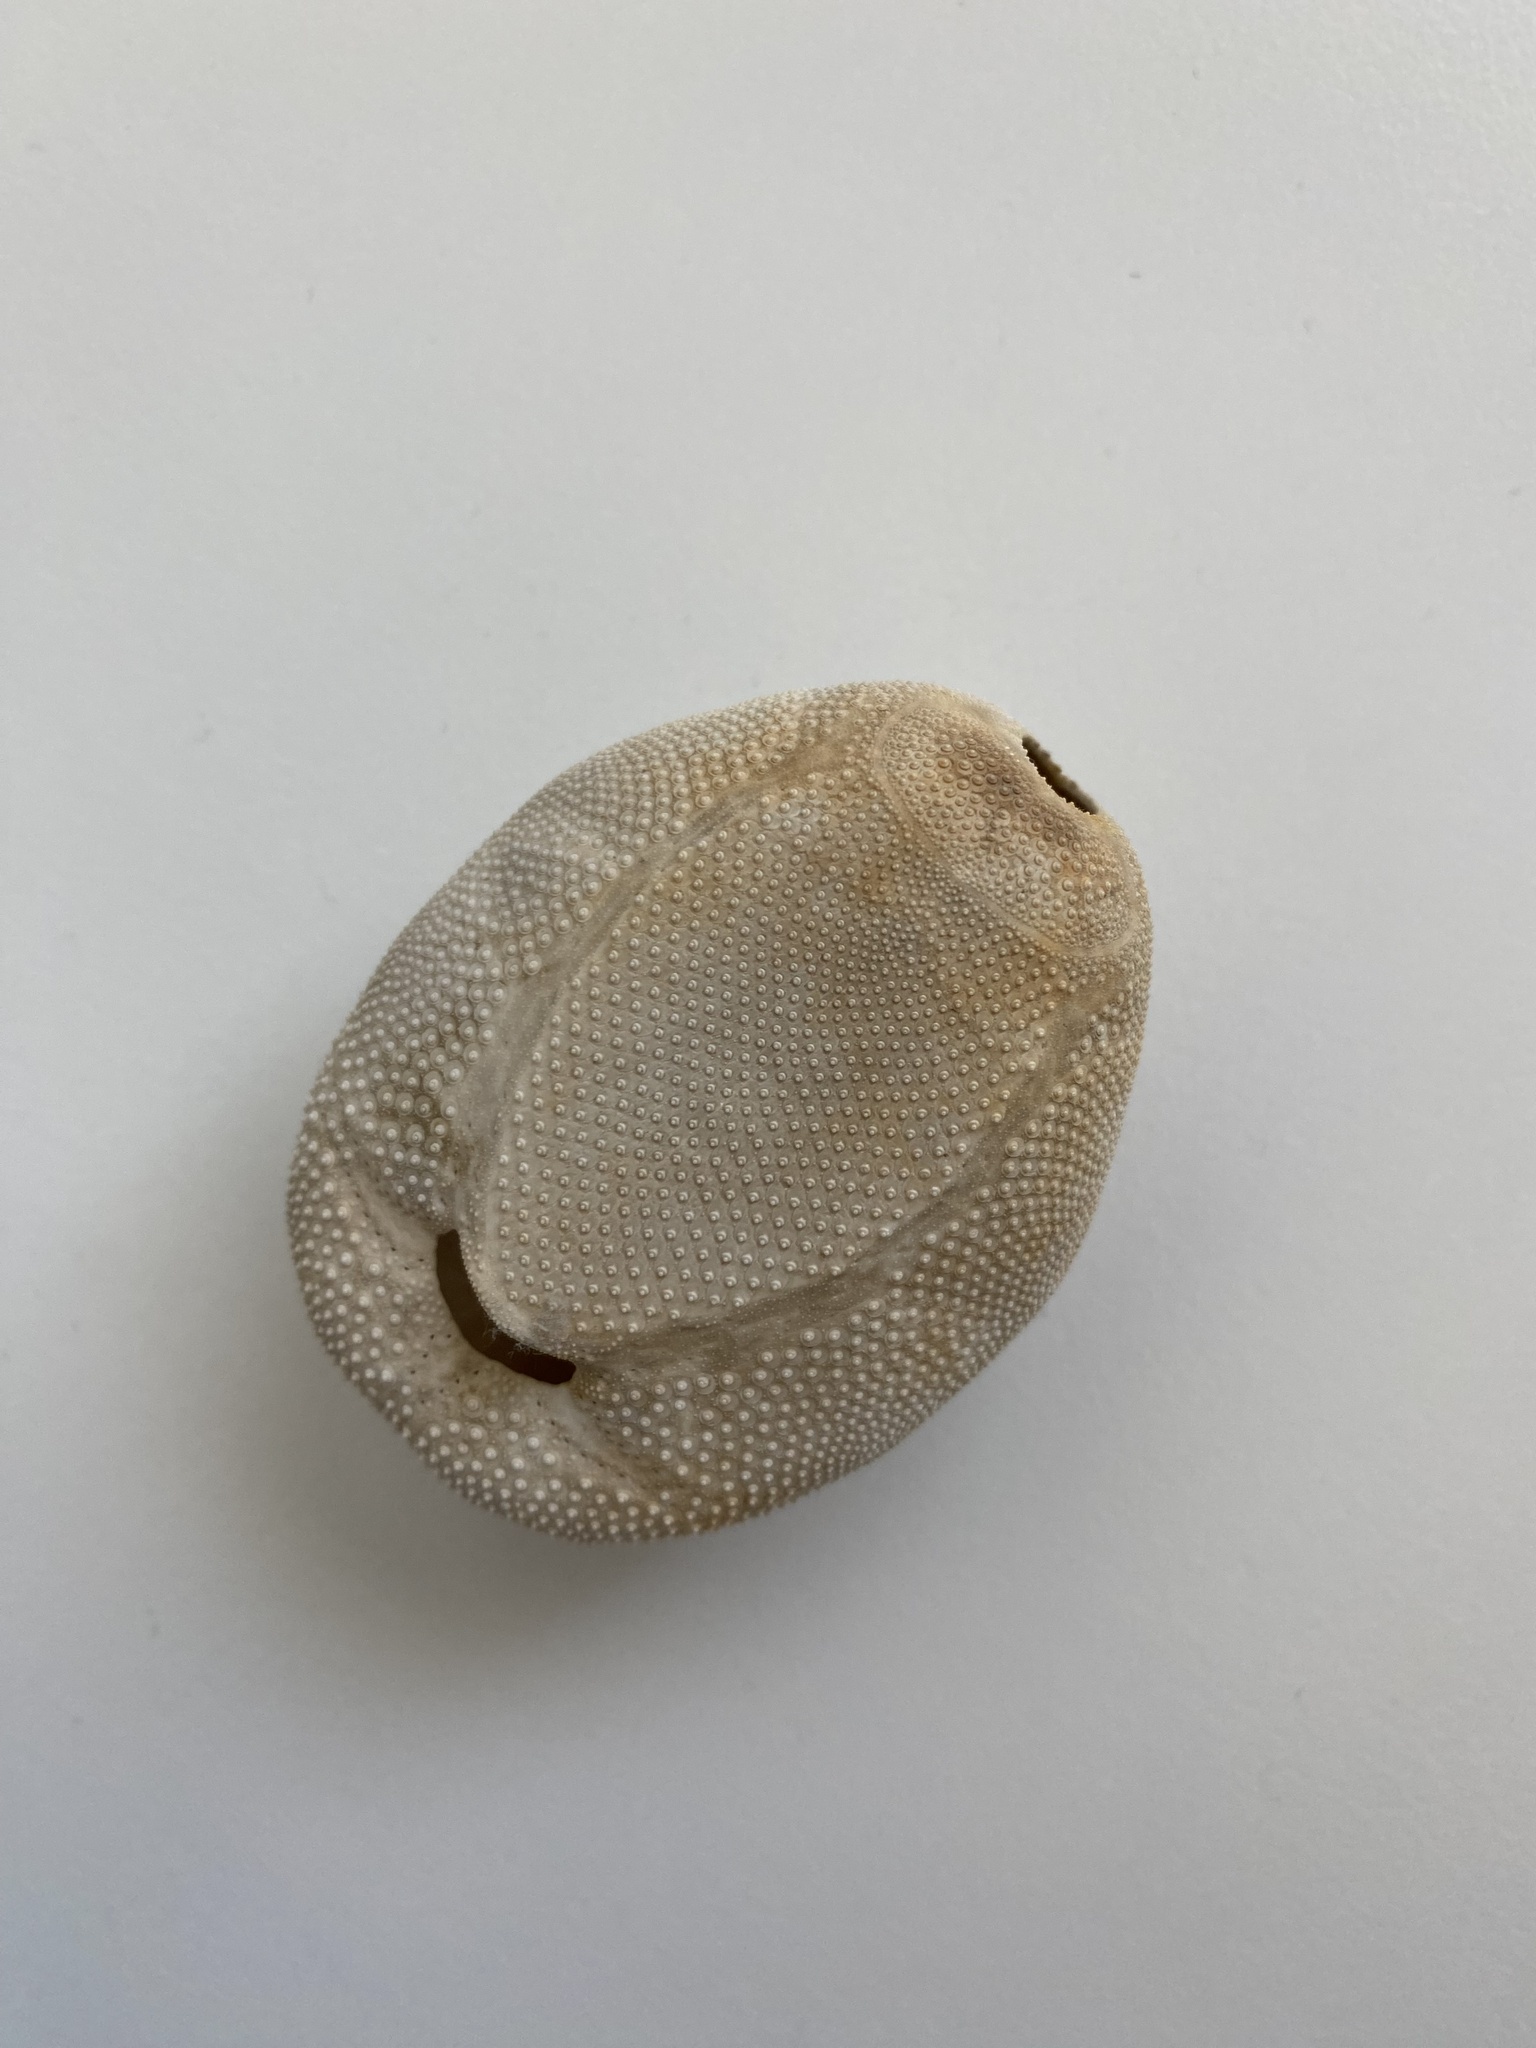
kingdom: Animalia
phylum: Echinodermata
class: Echinoidea
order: Spatangoida
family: Brissidae
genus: Brissus
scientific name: Brissus unicolor
